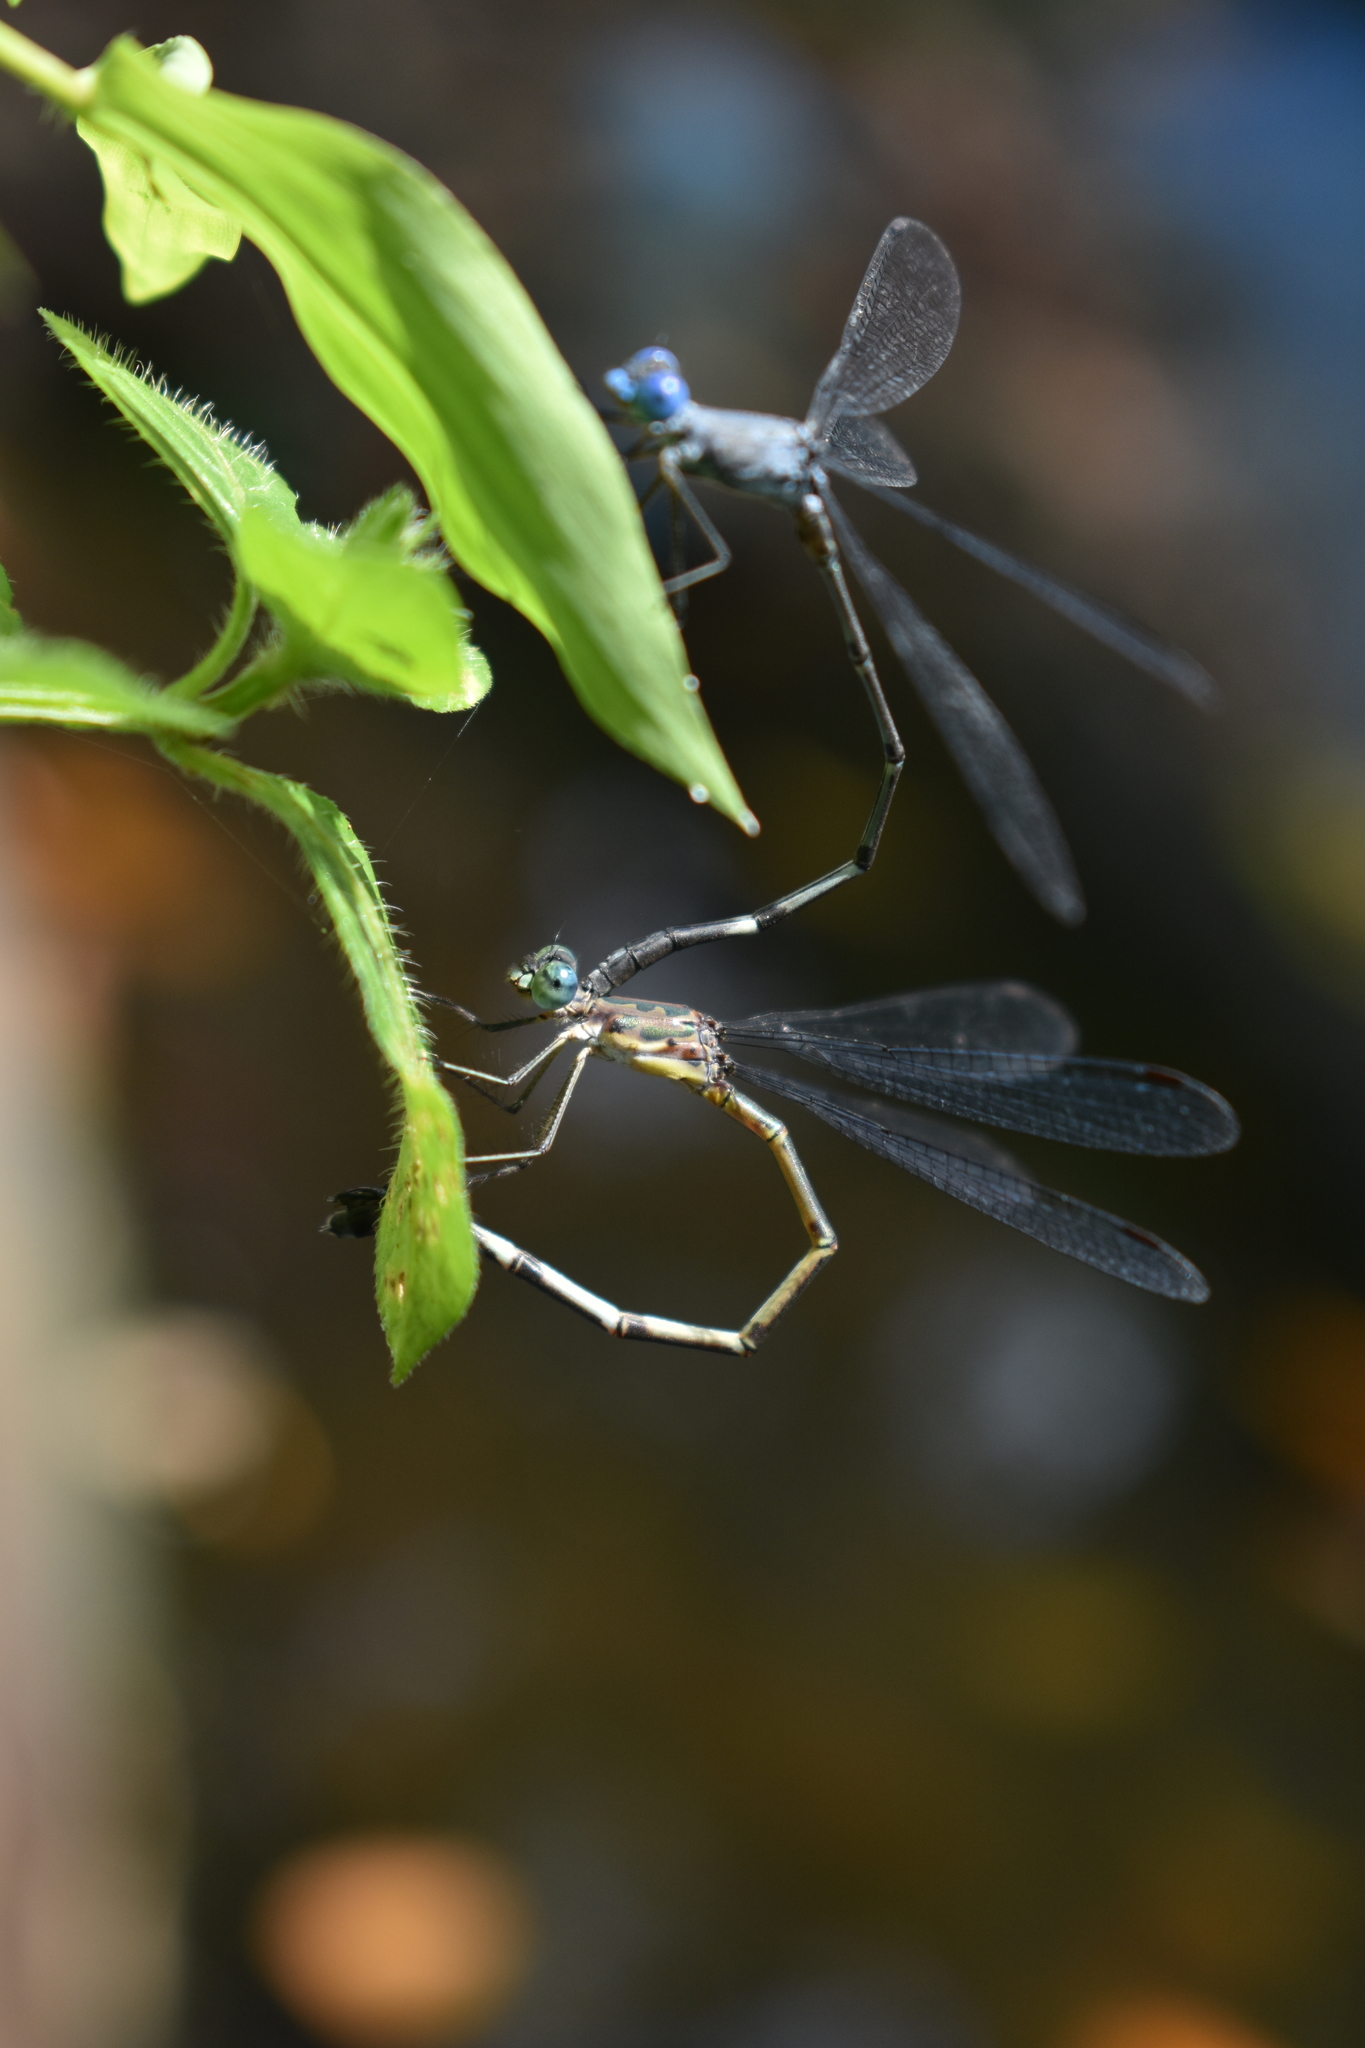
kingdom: Animalia
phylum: Arthropoda
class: Insecta
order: Odonata
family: Lestidae
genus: Lestes
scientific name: Lestes dorothea
